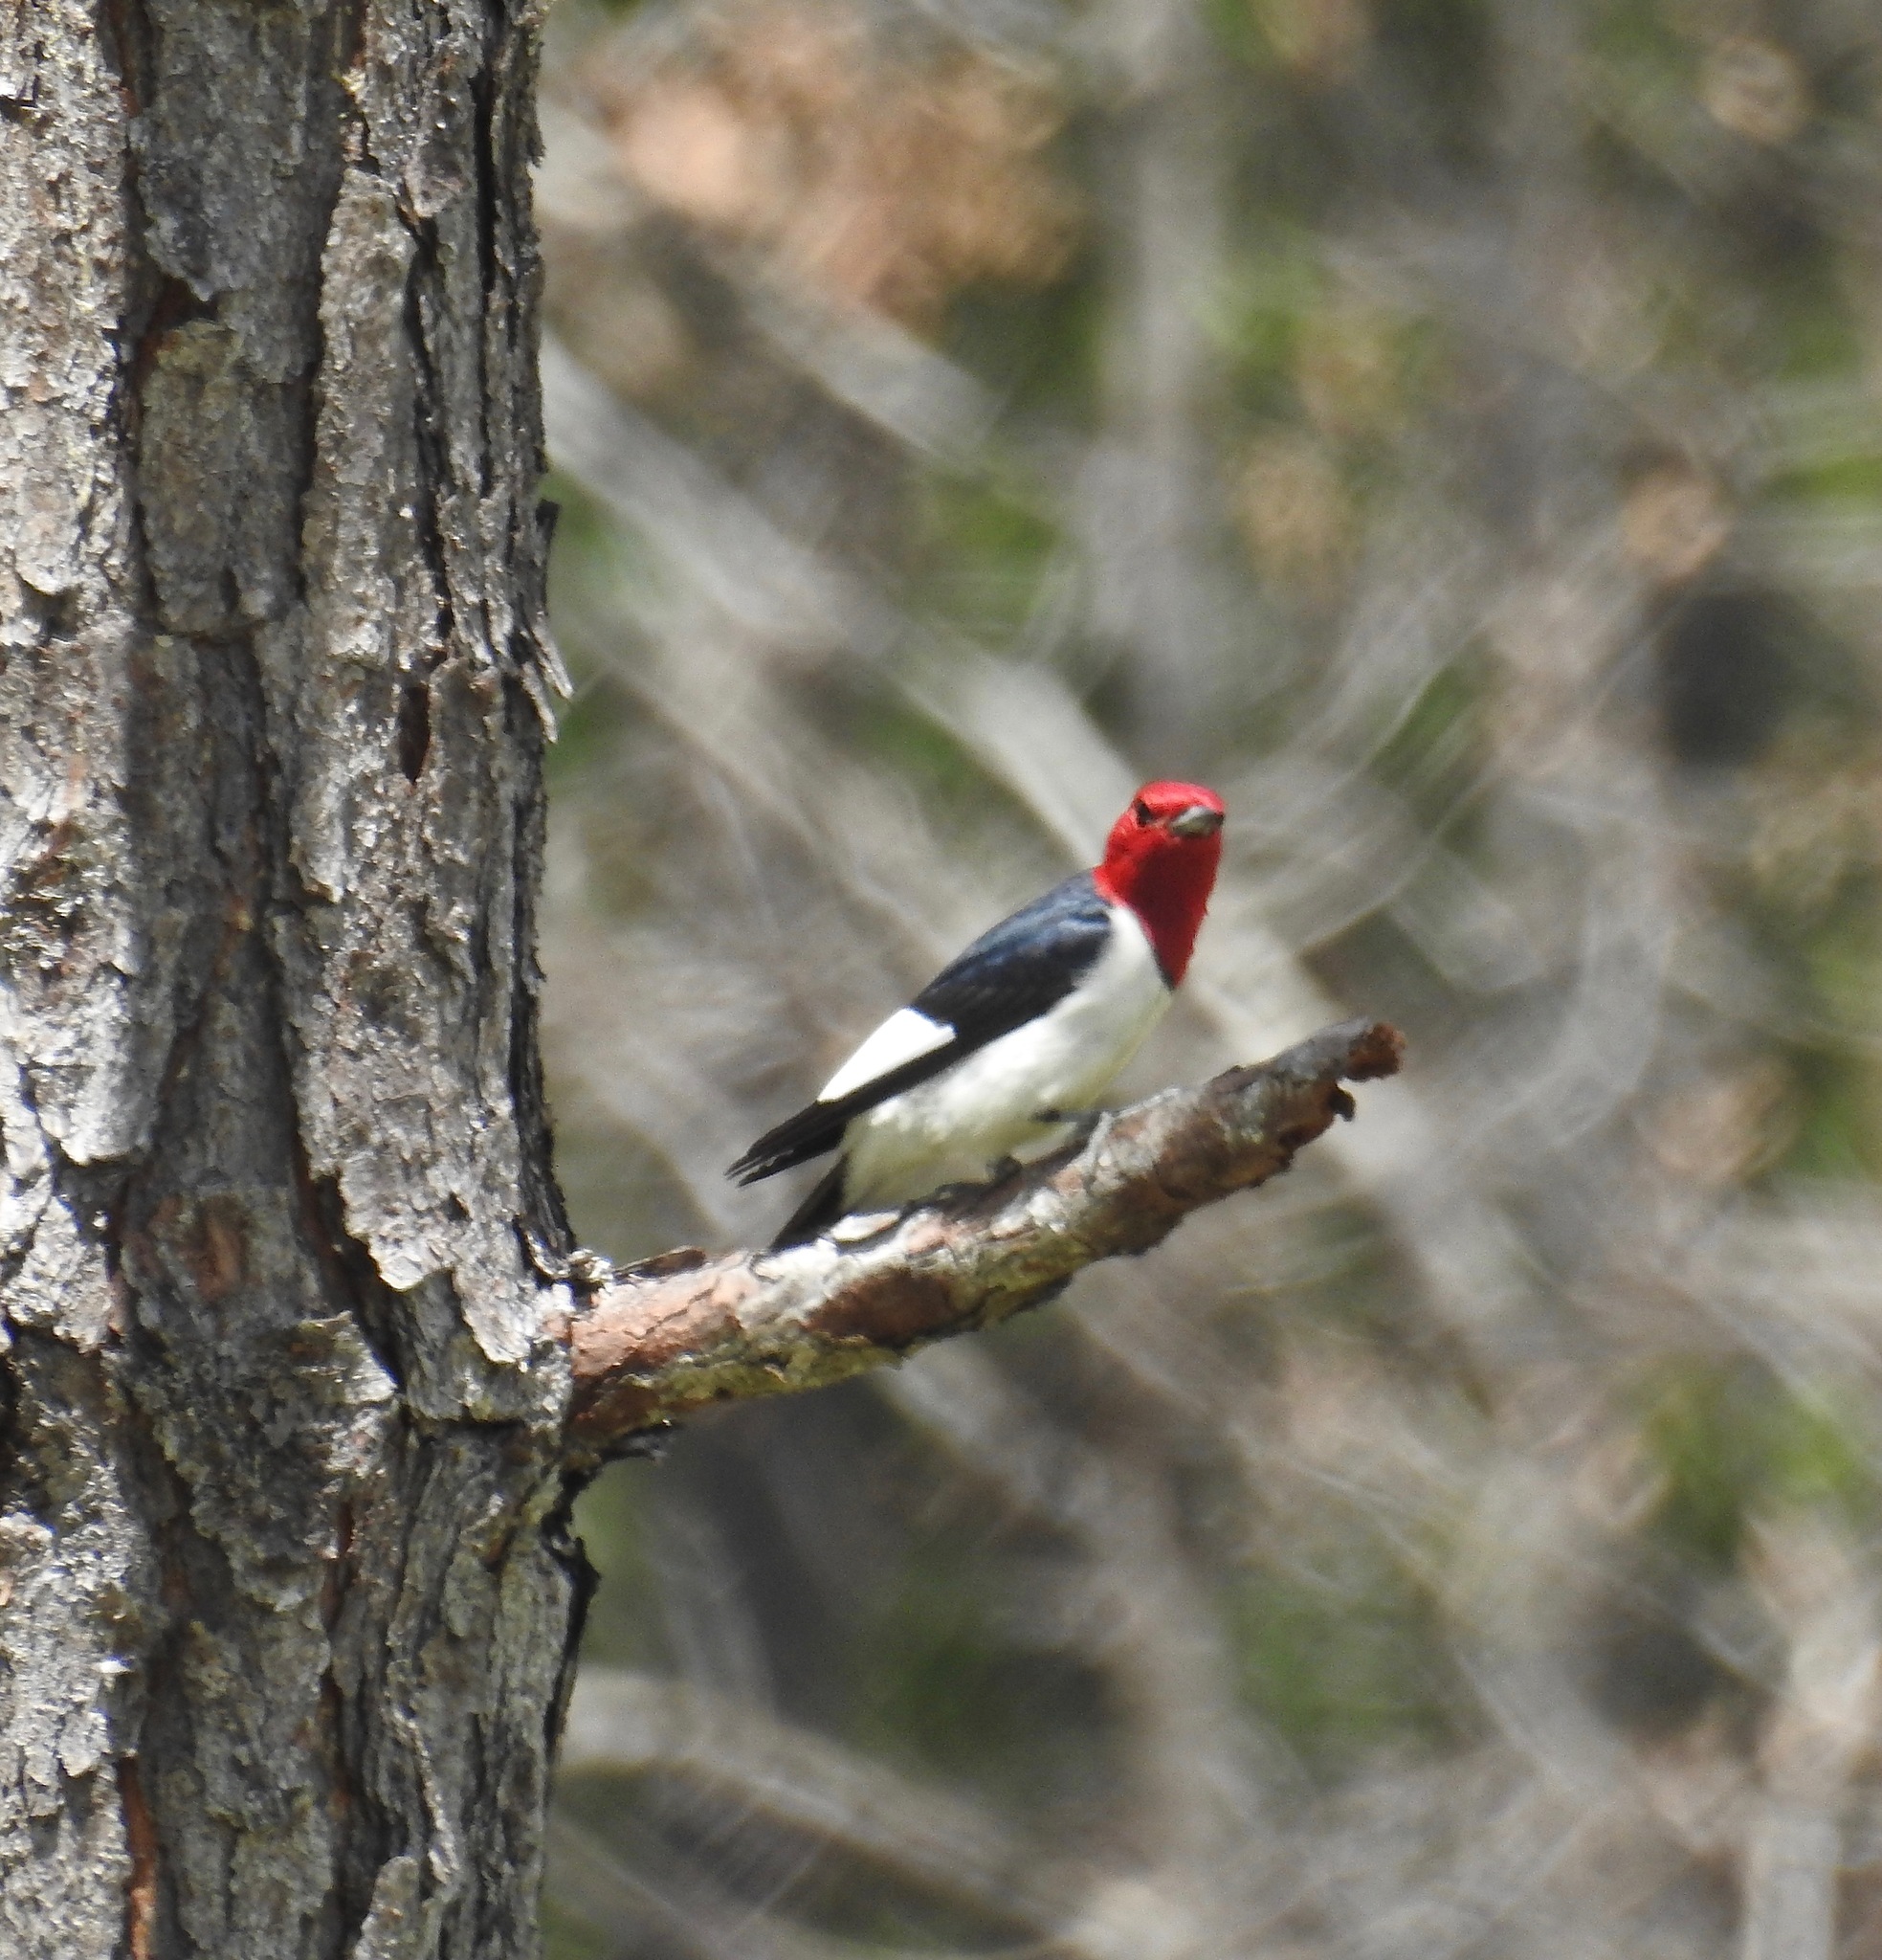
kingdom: Animalia
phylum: Chordata
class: Aves
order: Piciformes
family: Picidae
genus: Melanerpes
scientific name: Melanerpes erythrocephalus
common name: Red-headed woodpecker
